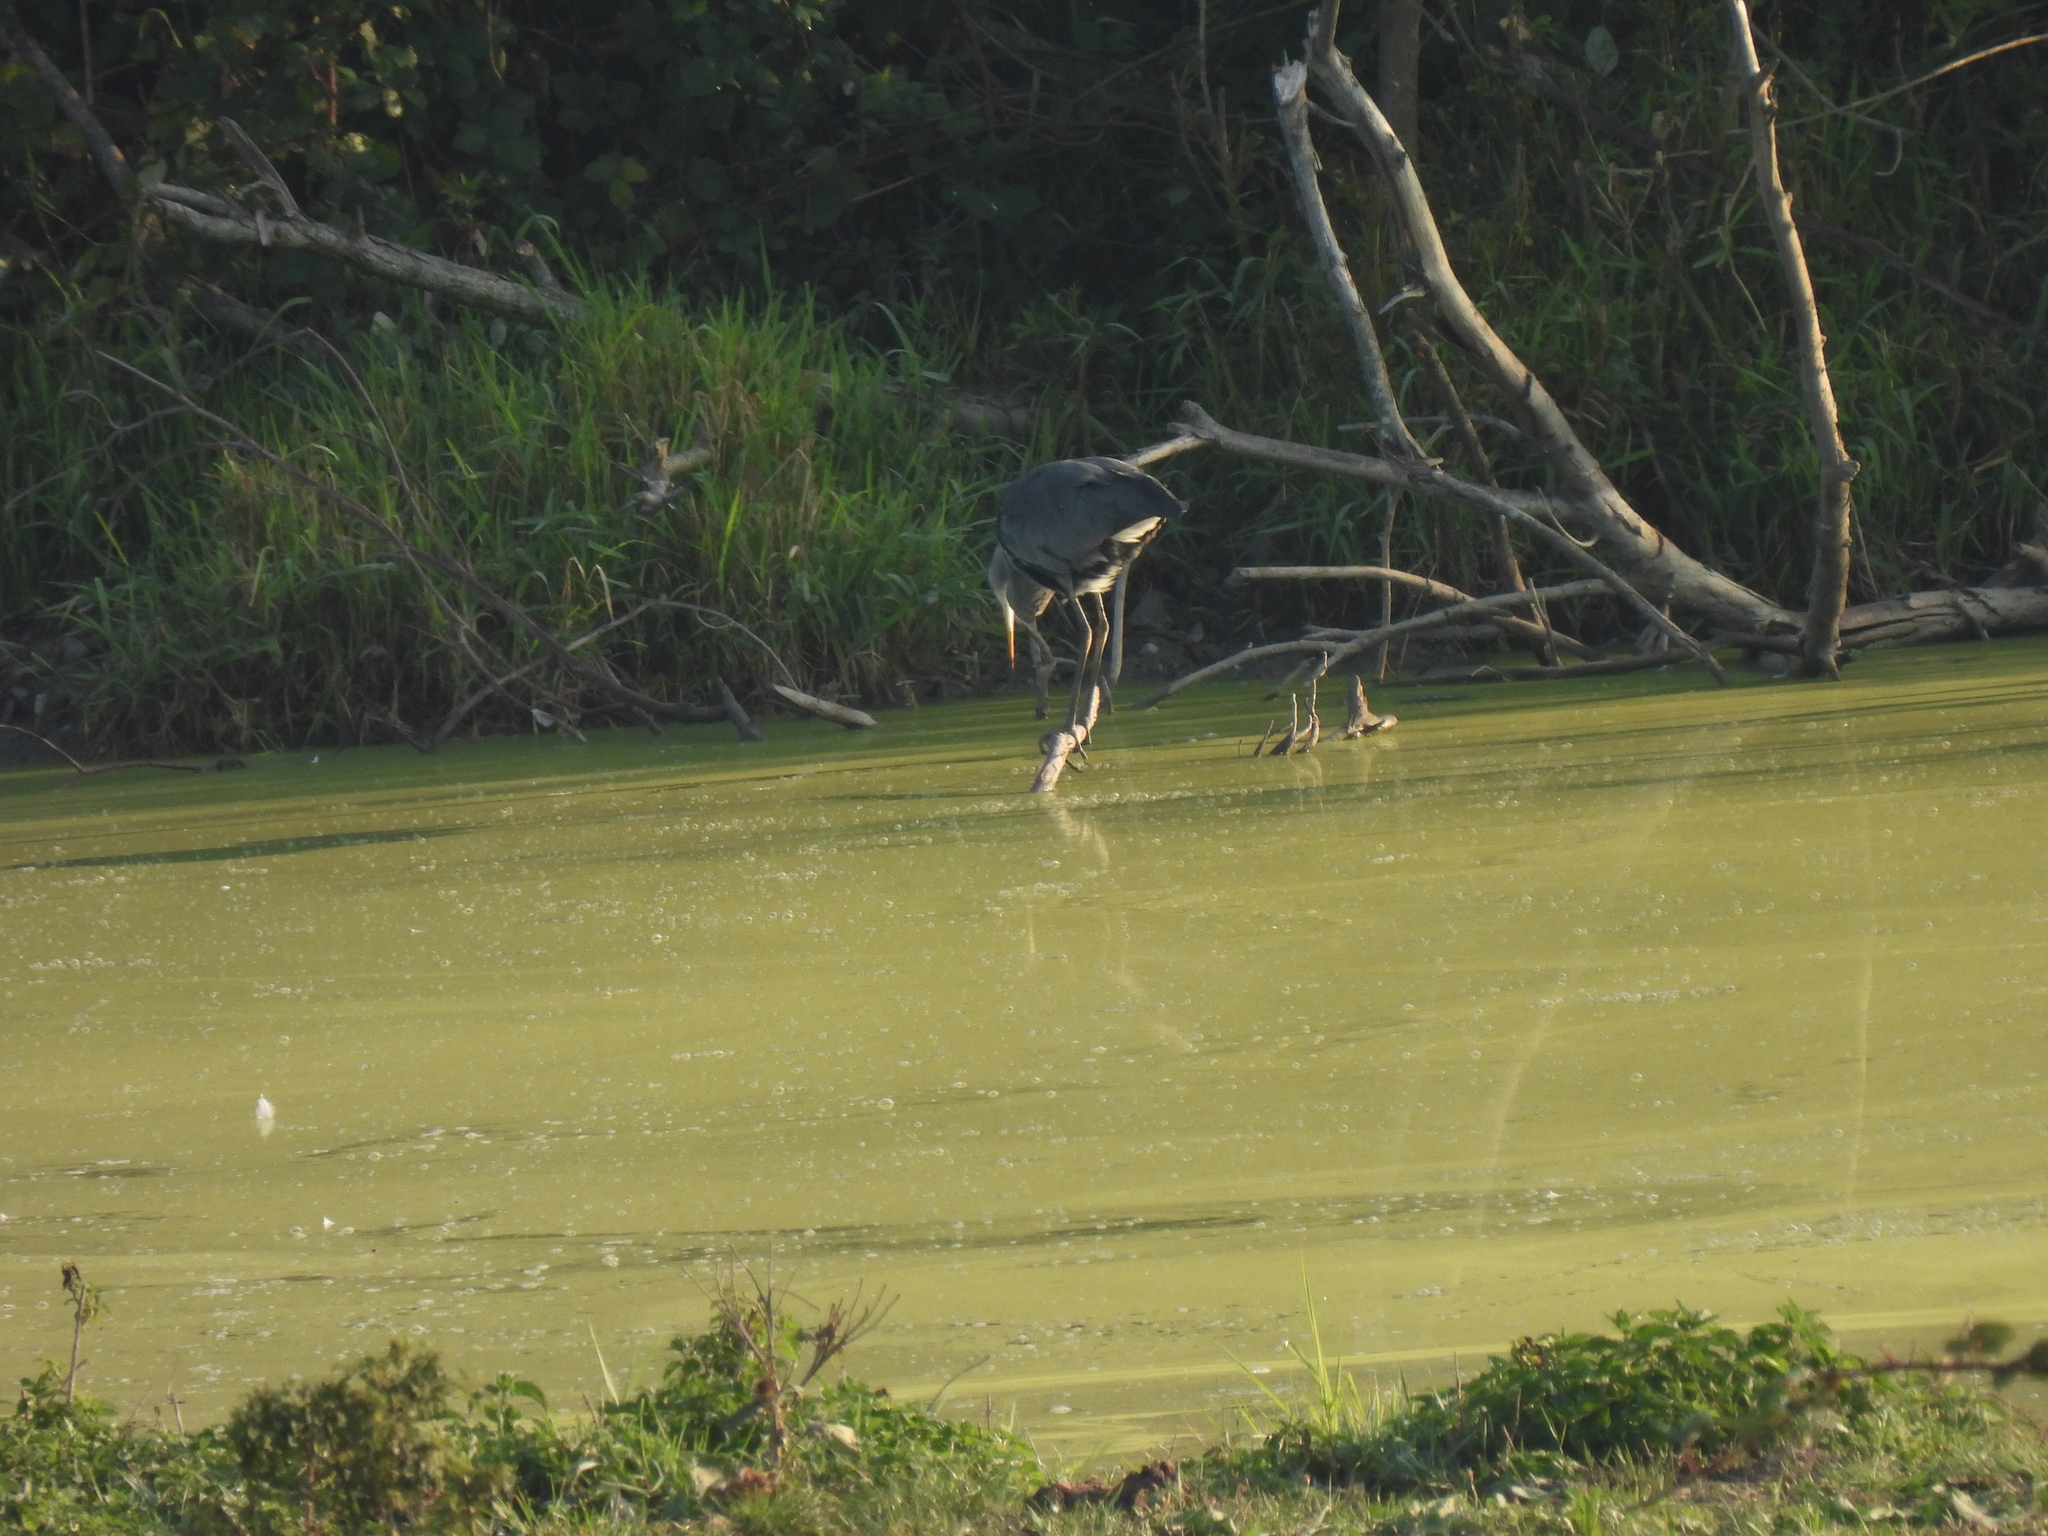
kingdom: Animalia
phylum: Chordata
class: Aves
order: Pelecaniformes
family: Ardeidae
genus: Ardea
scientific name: Ardea cinerea
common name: Grey heron
